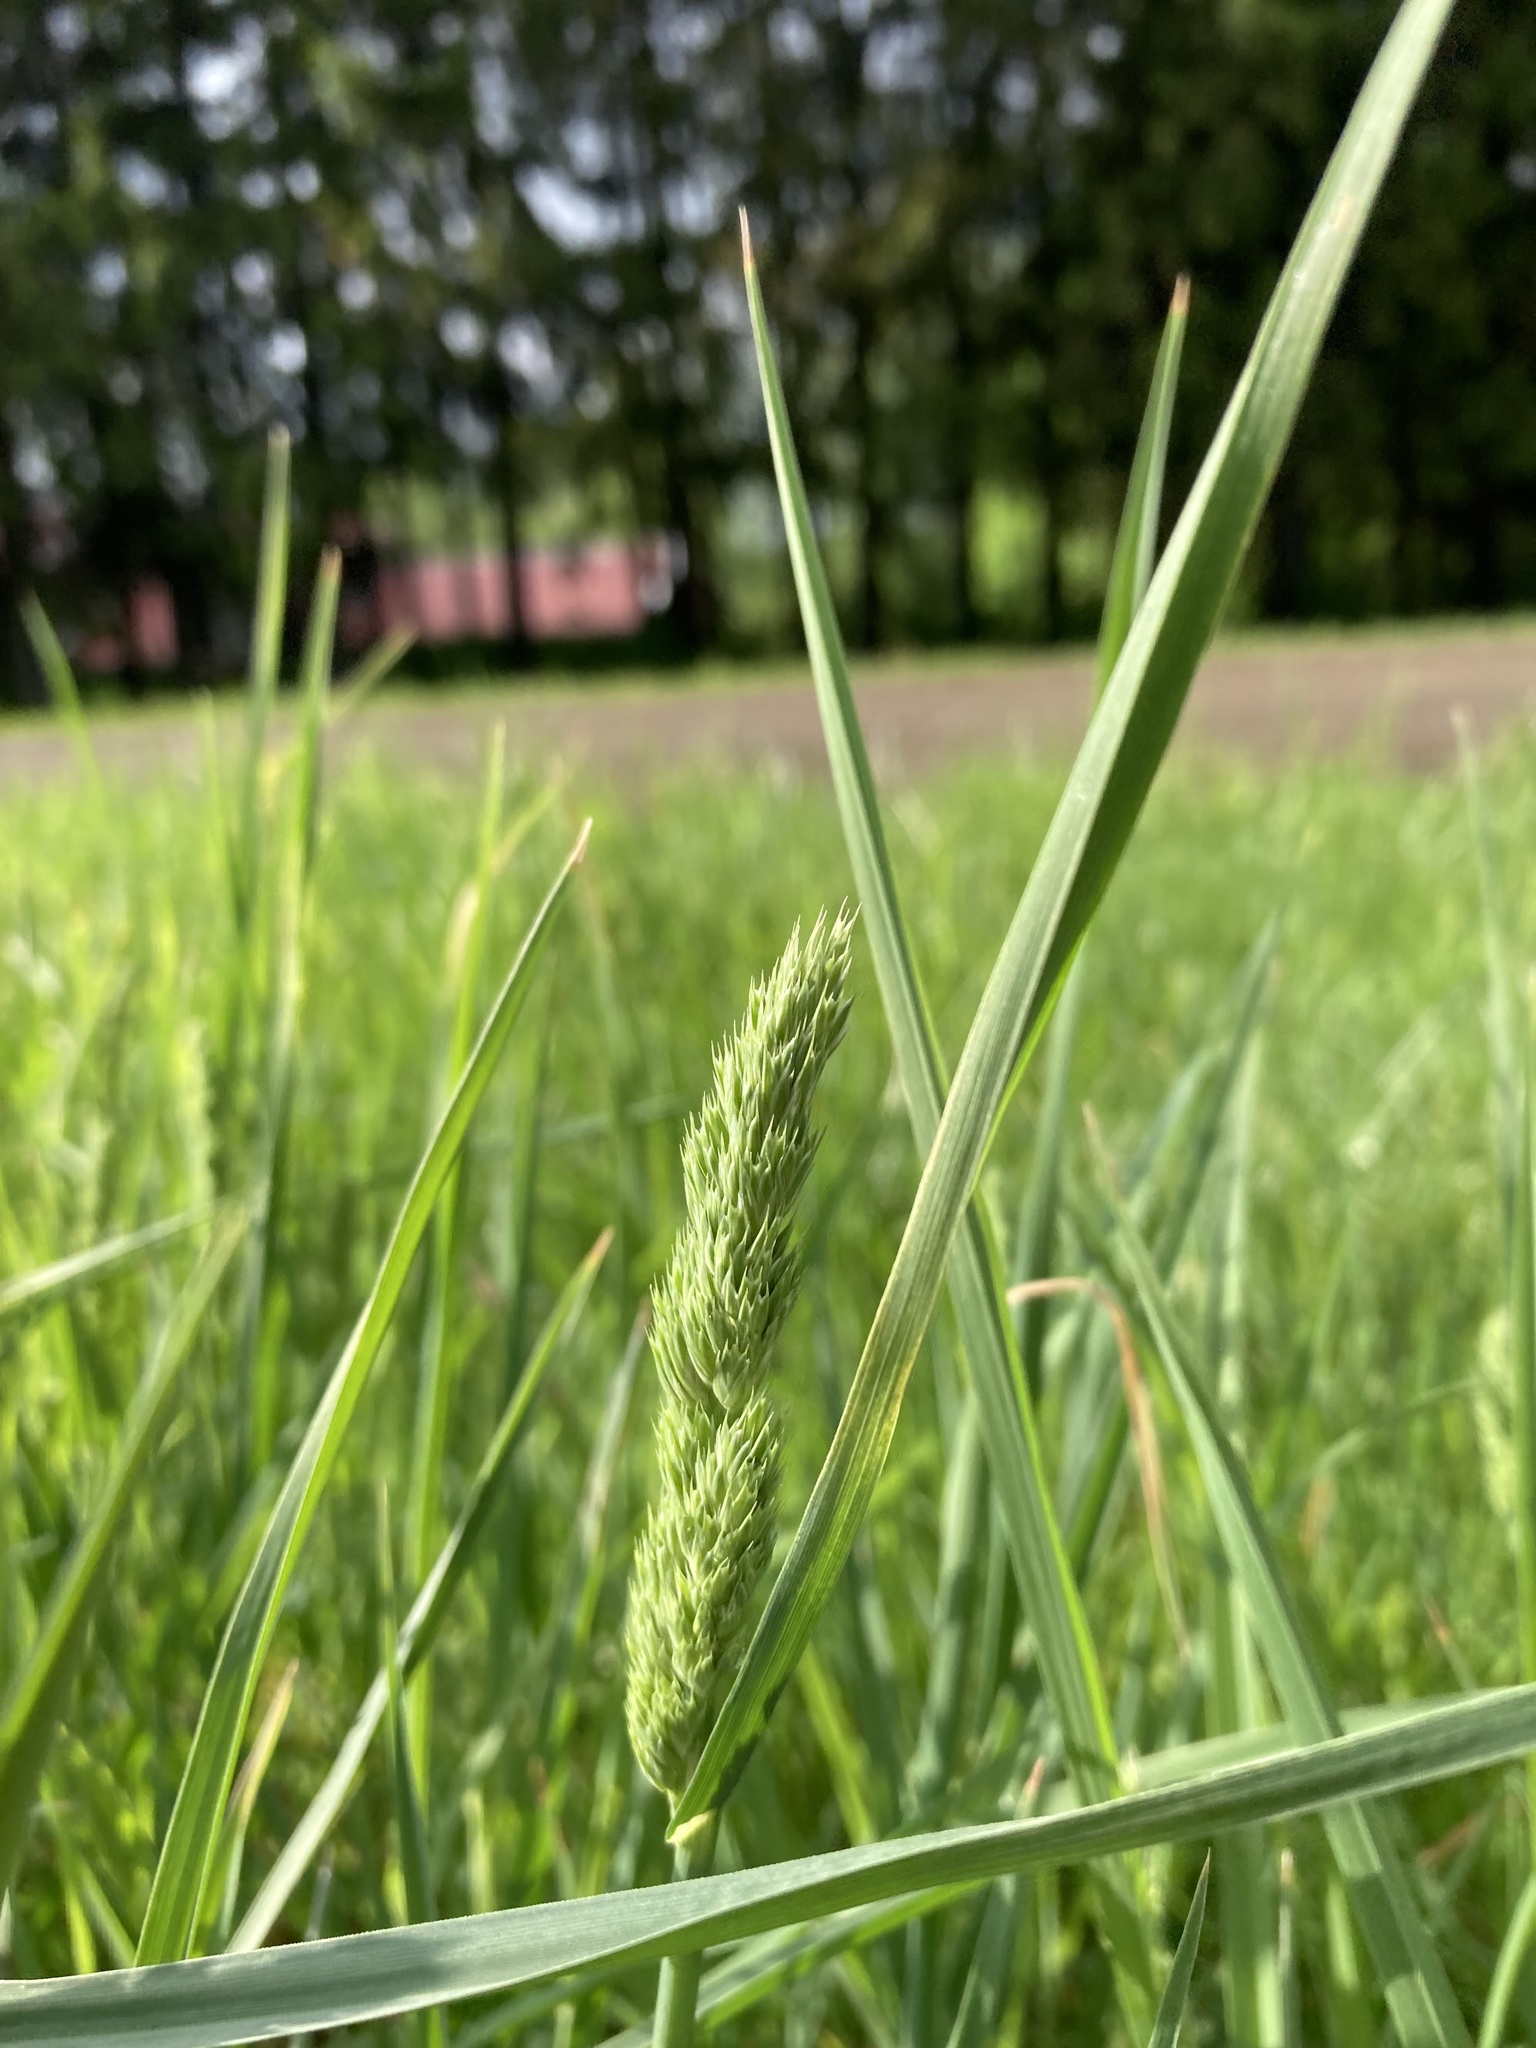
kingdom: Plantae
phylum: Tracheophyta
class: Liliopsida
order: Poales
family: Poaceae
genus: Dactylis
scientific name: Dactylis glomerata
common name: Orchardgrass
